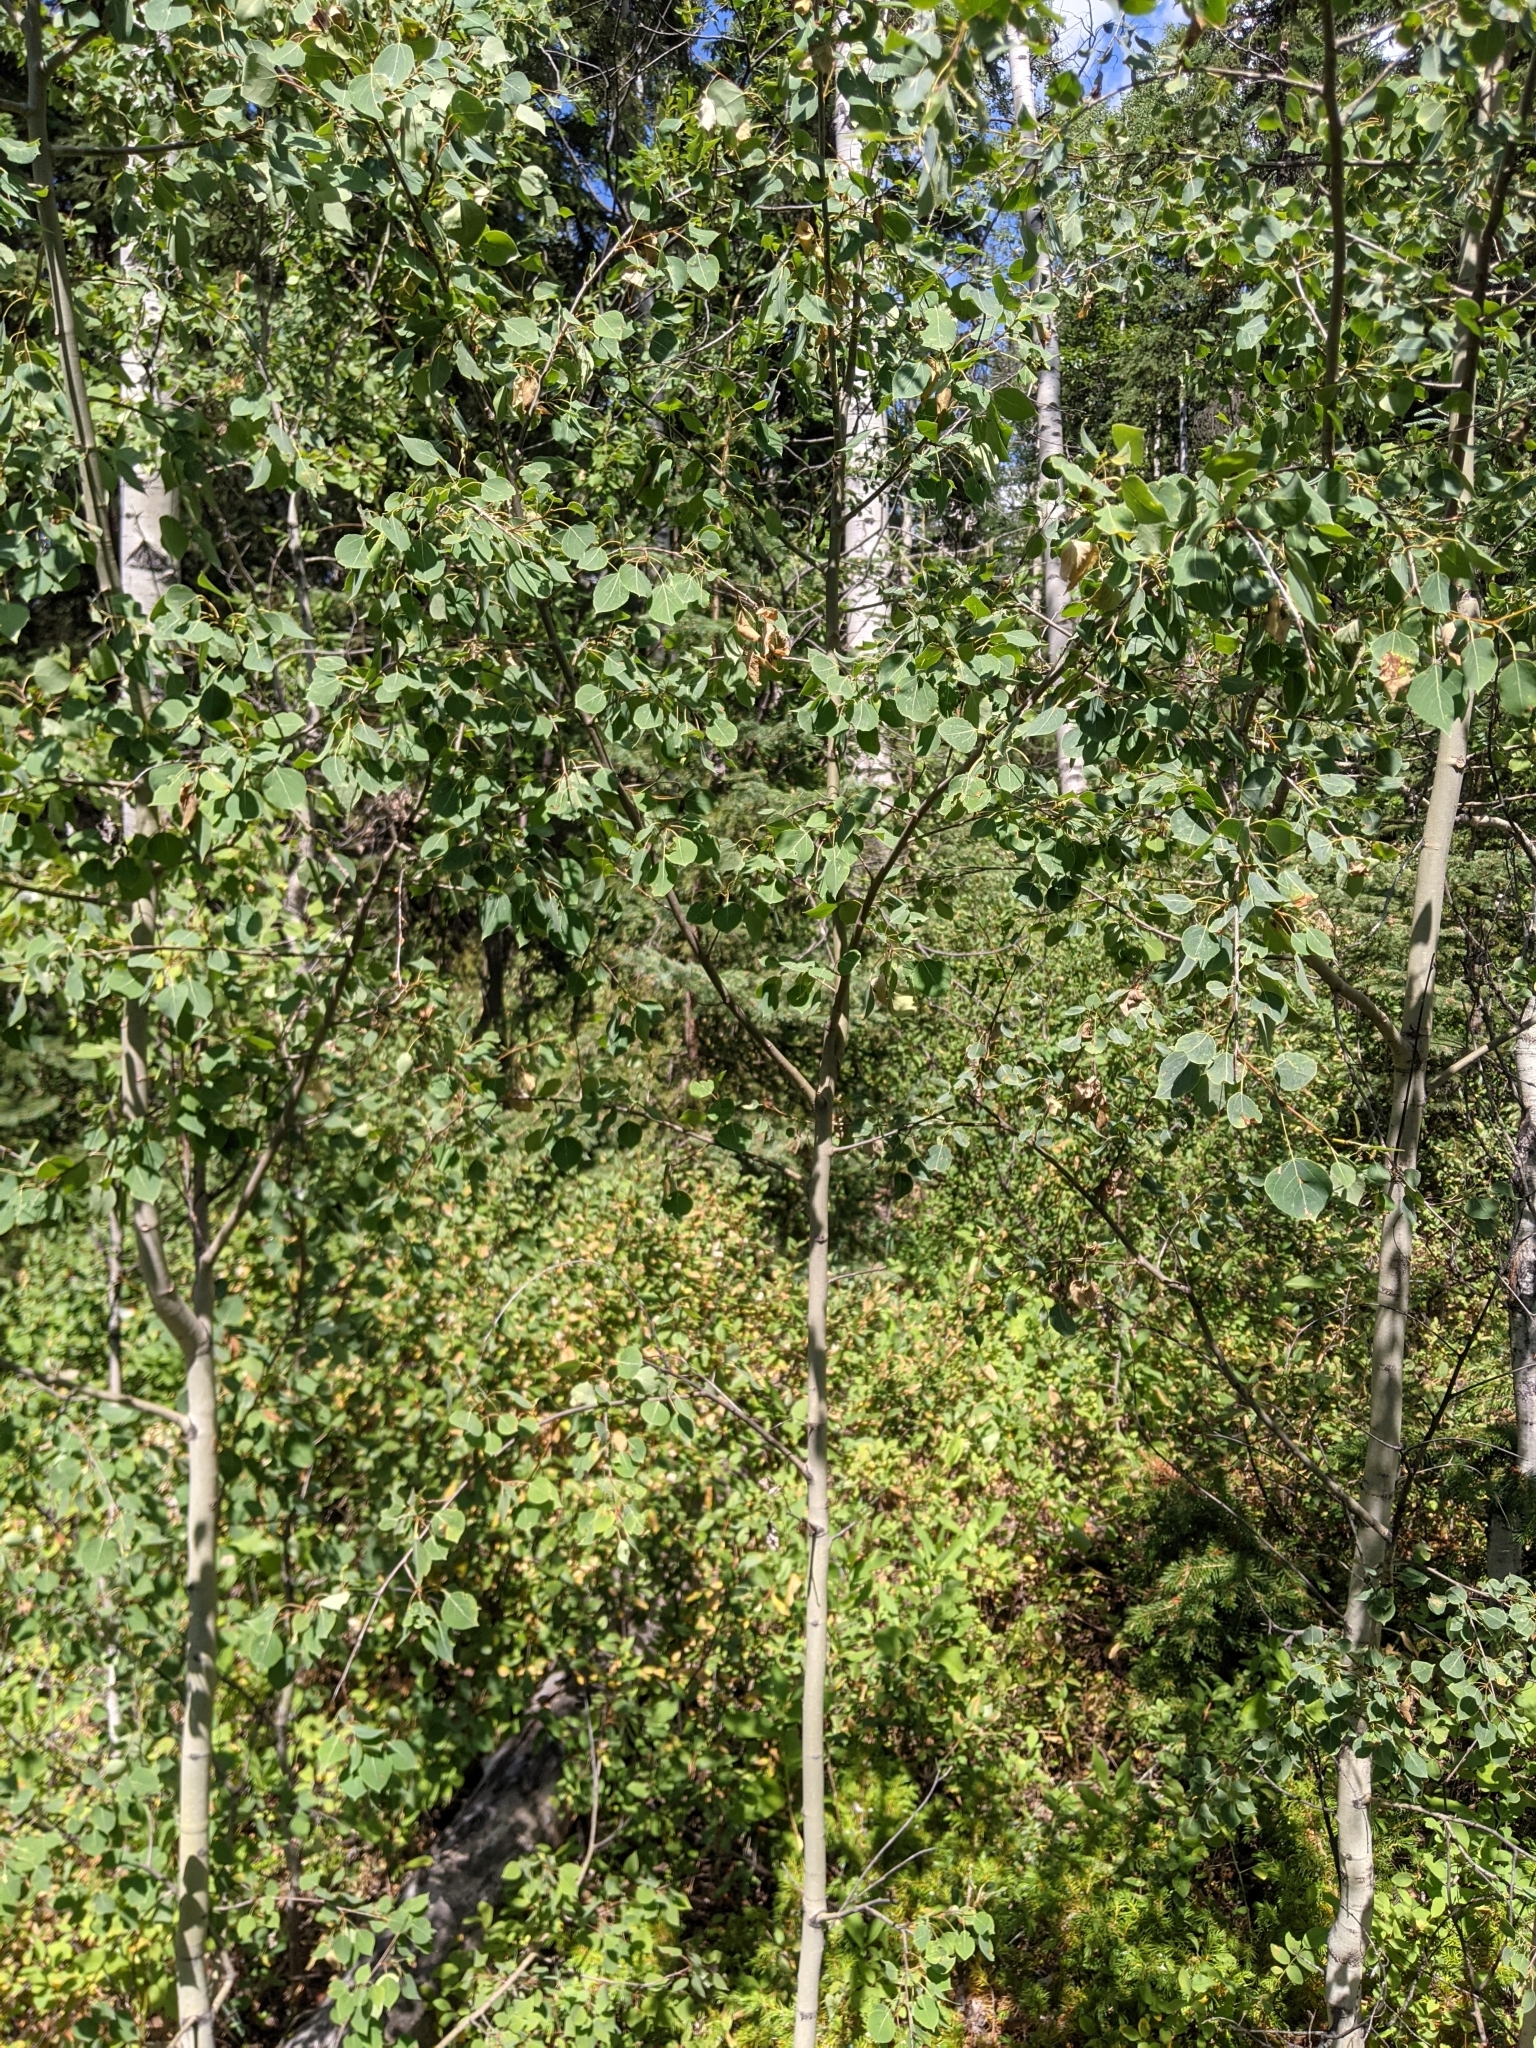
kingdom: Plantae
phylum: Tracheophyta
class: Magnoliopsida
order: Malpighiales
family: Salicaceae
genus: Populus
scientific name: Populus tremuloides
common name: Quaking aspen
